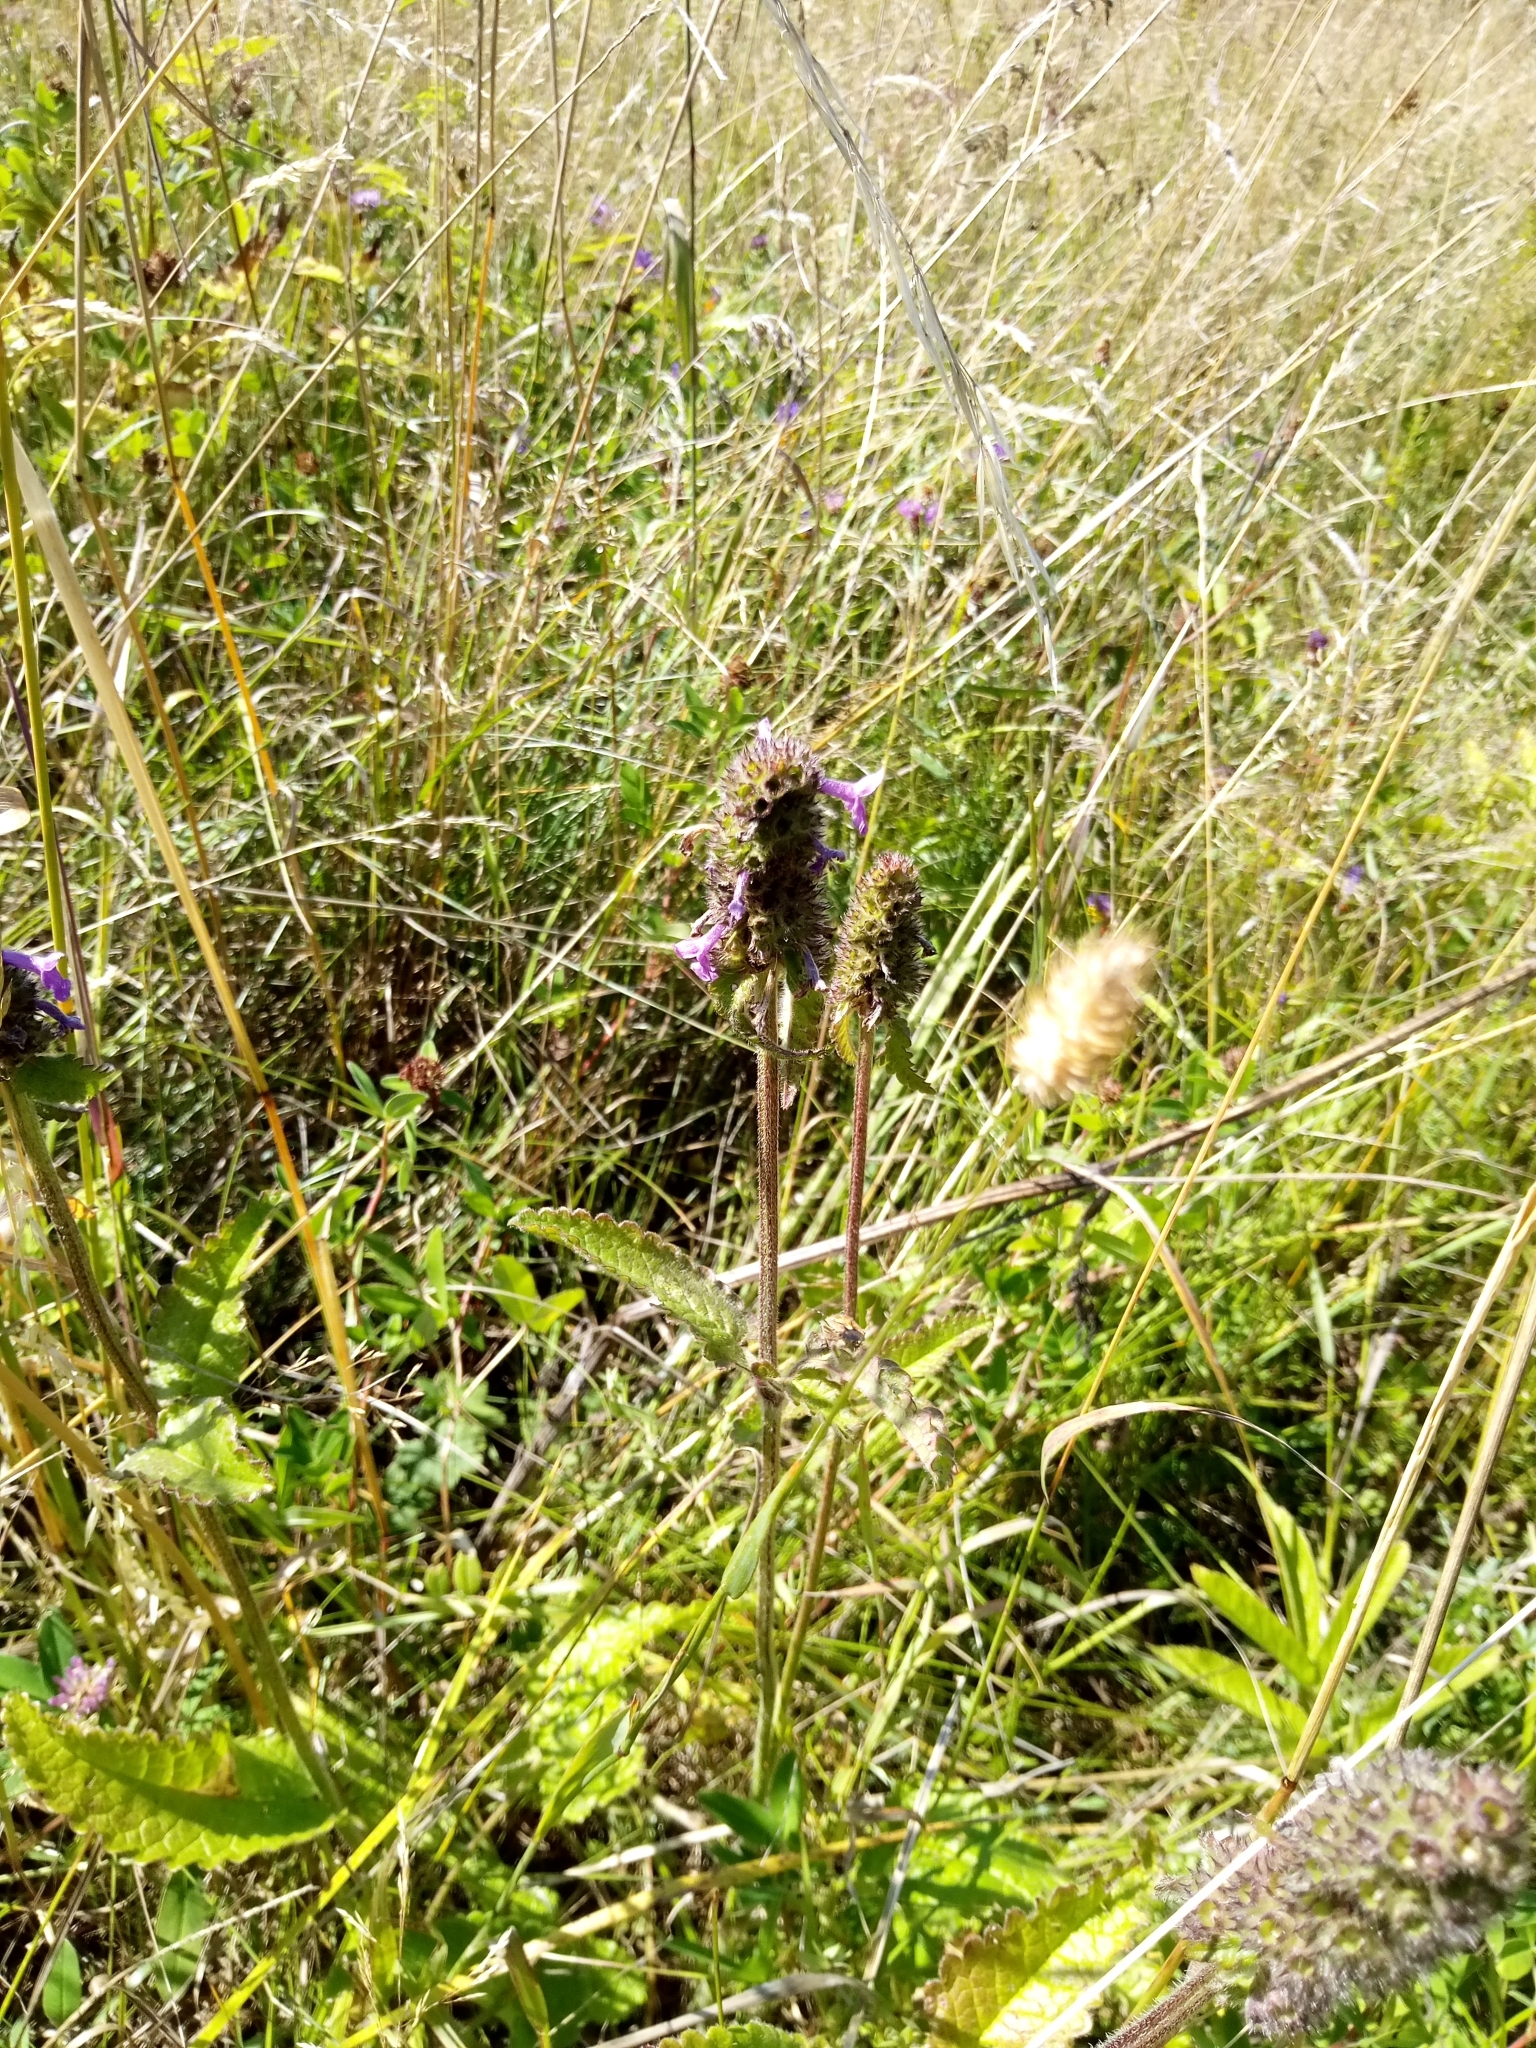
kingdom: Plantae
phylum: Tracheophyta
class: Magnoliopsida
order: Lamiales
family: Lamiaceae
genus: Betonica
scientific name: Betonica officinalis
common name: Bishop's-wort
